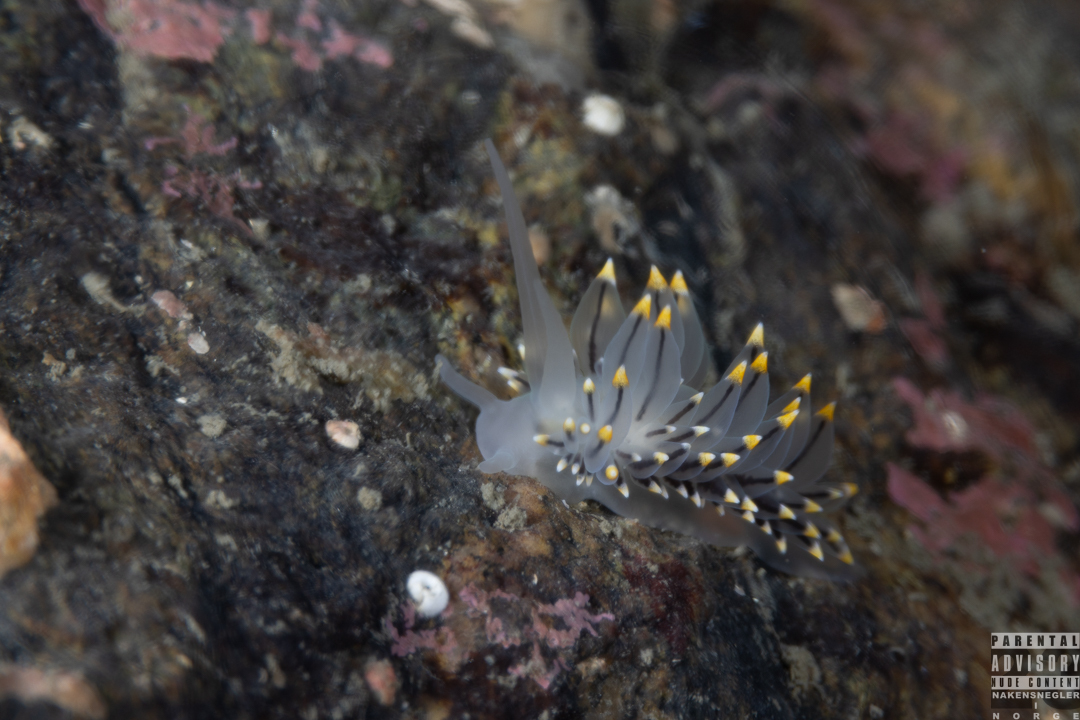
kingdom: Animalia
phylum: Mollusca
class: Gastropoda
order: Nudibranchia
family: Eubranchidae
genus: Eubranchus
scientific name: Eubranchus tricolor
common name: Painted balloon aeolis
